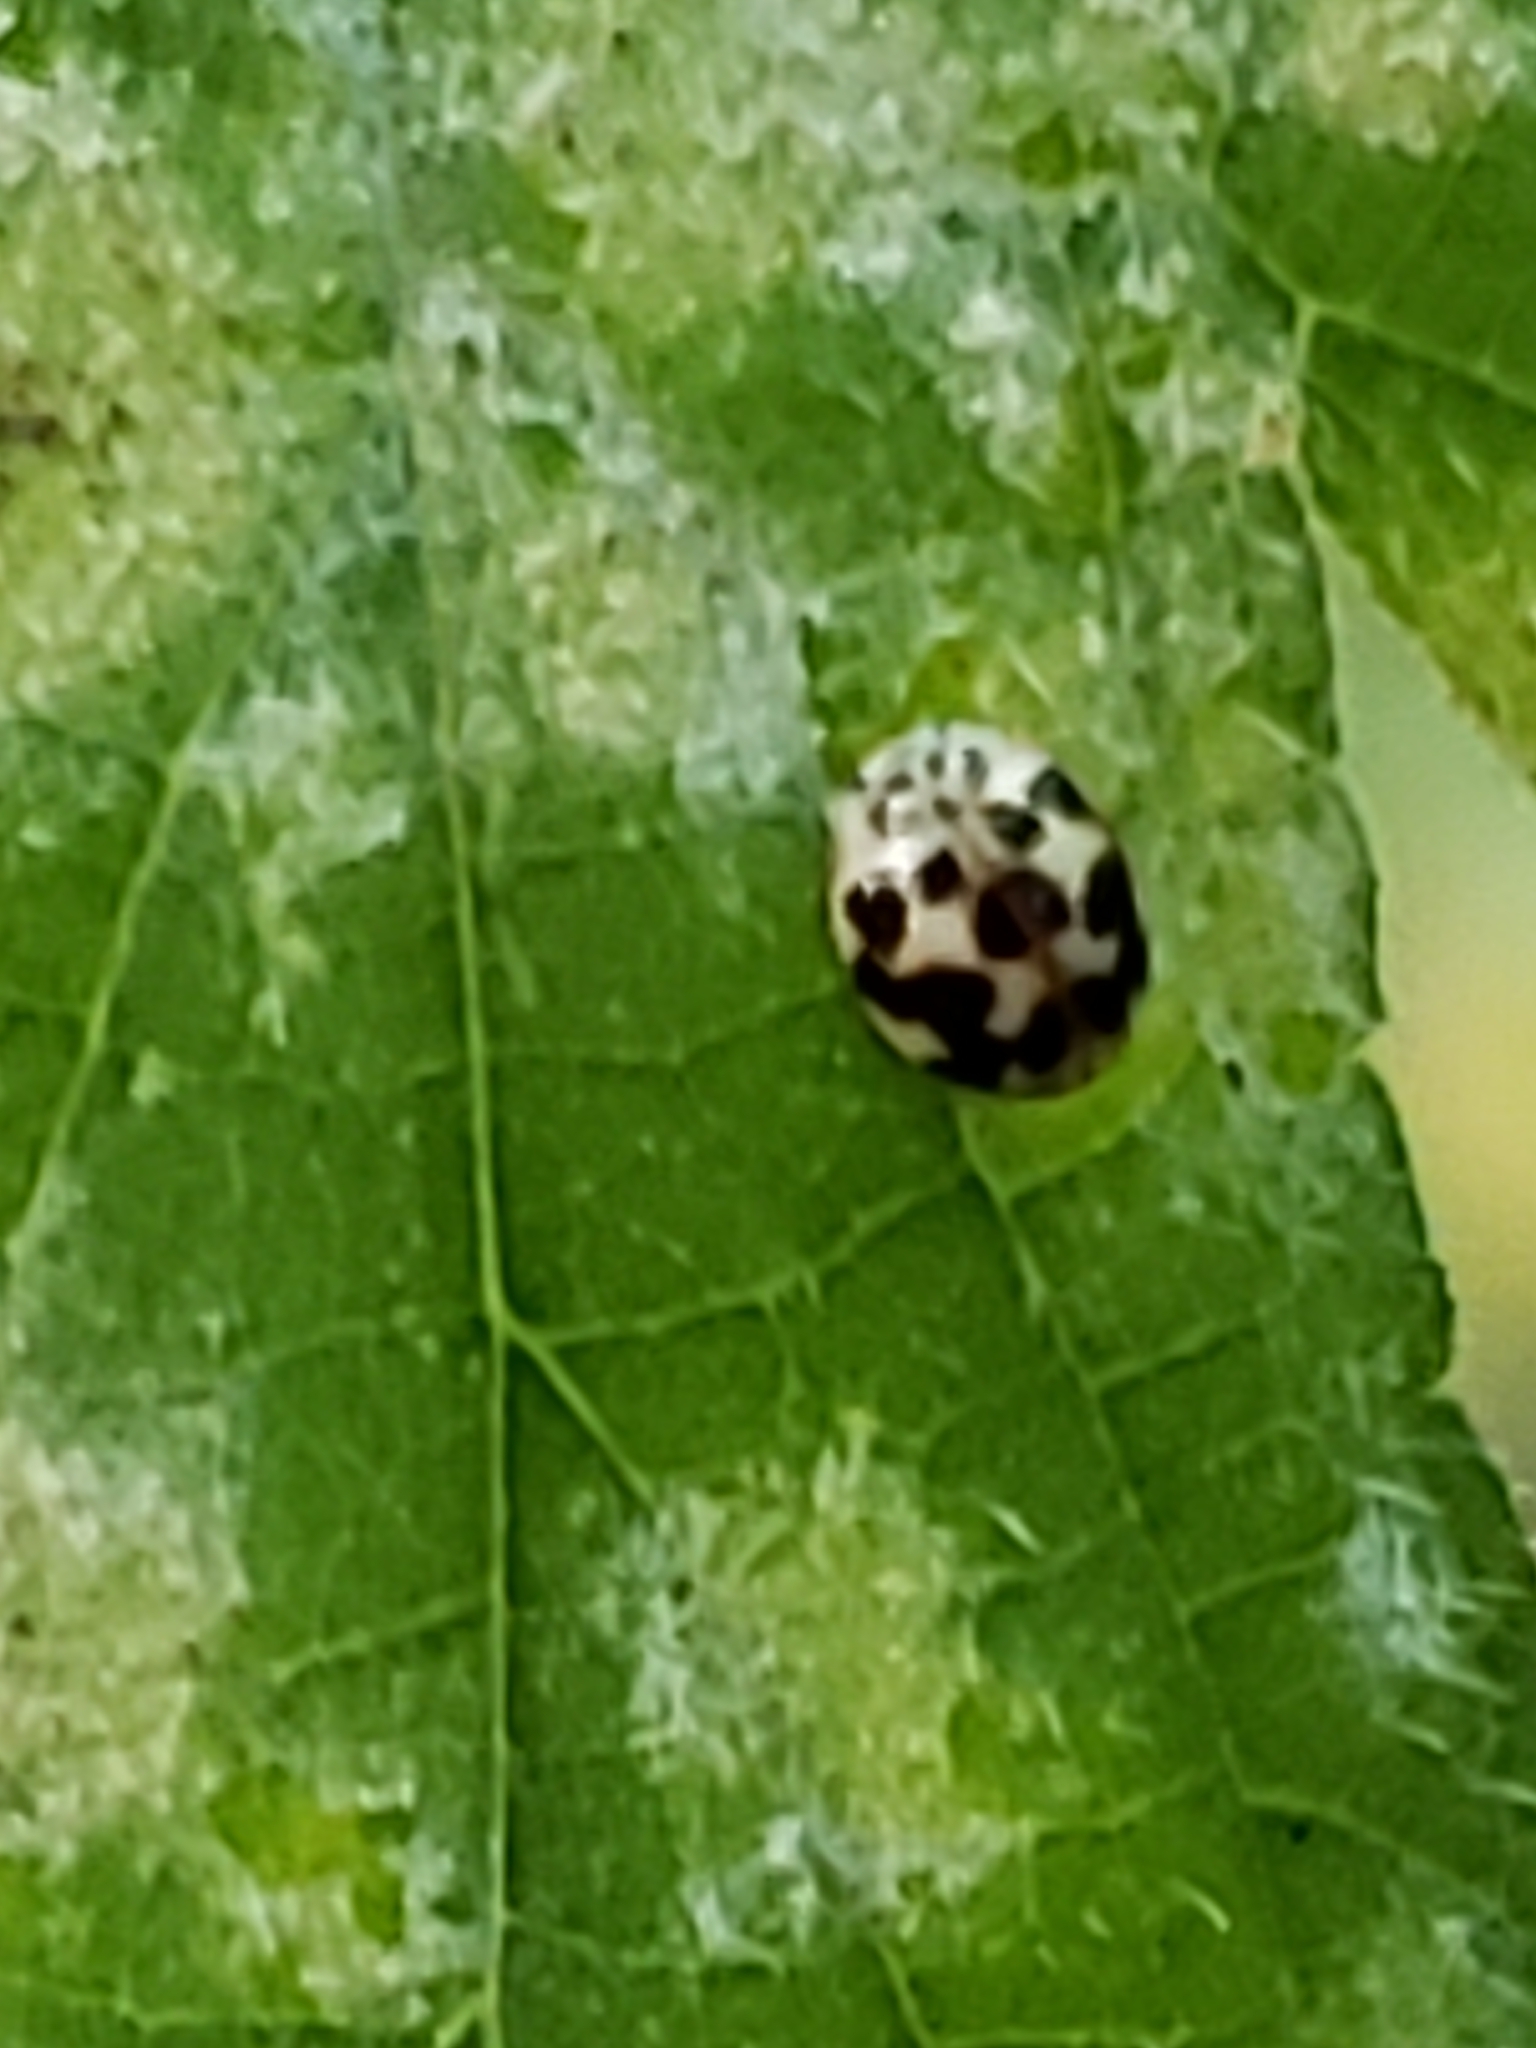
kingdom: Animalia
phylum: Arthropoda
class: Insecta
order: Coleoptera
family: Coccinellidae
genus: Psyllobora
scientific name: Psyllobora vigintimaculata
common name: Ladybird beetle
